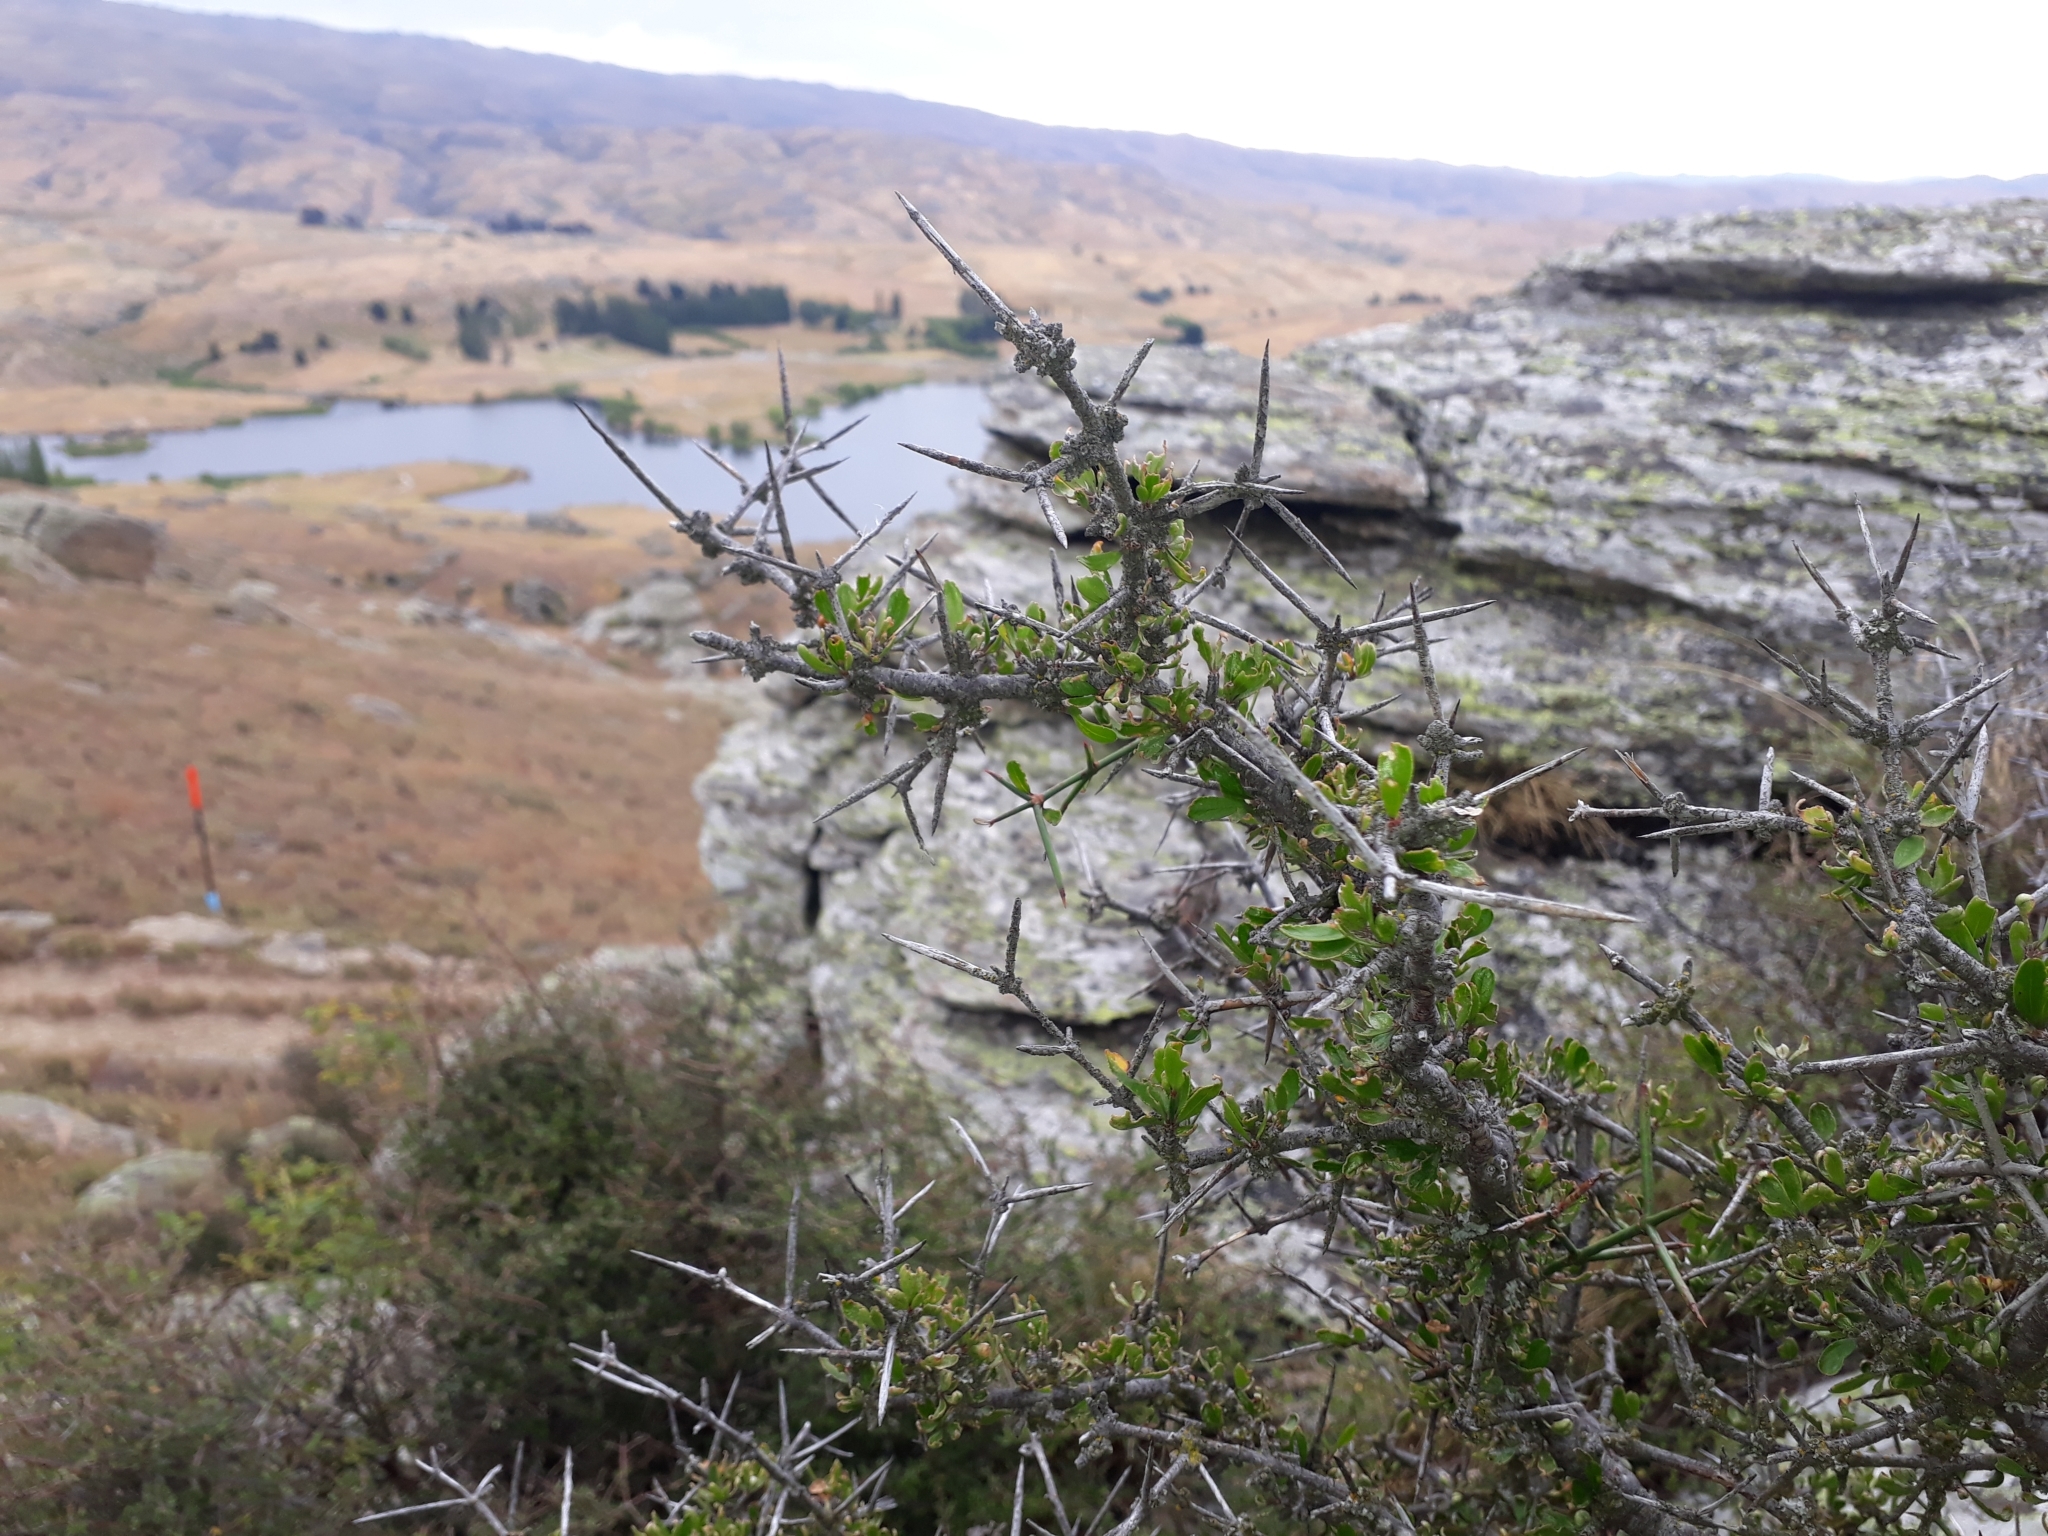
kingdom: Plantae
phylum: Tracheophyta
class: Magnoliopsida
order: Rosales
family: Rhamnaceae
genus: Discaria
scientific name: Discaria toumatou
